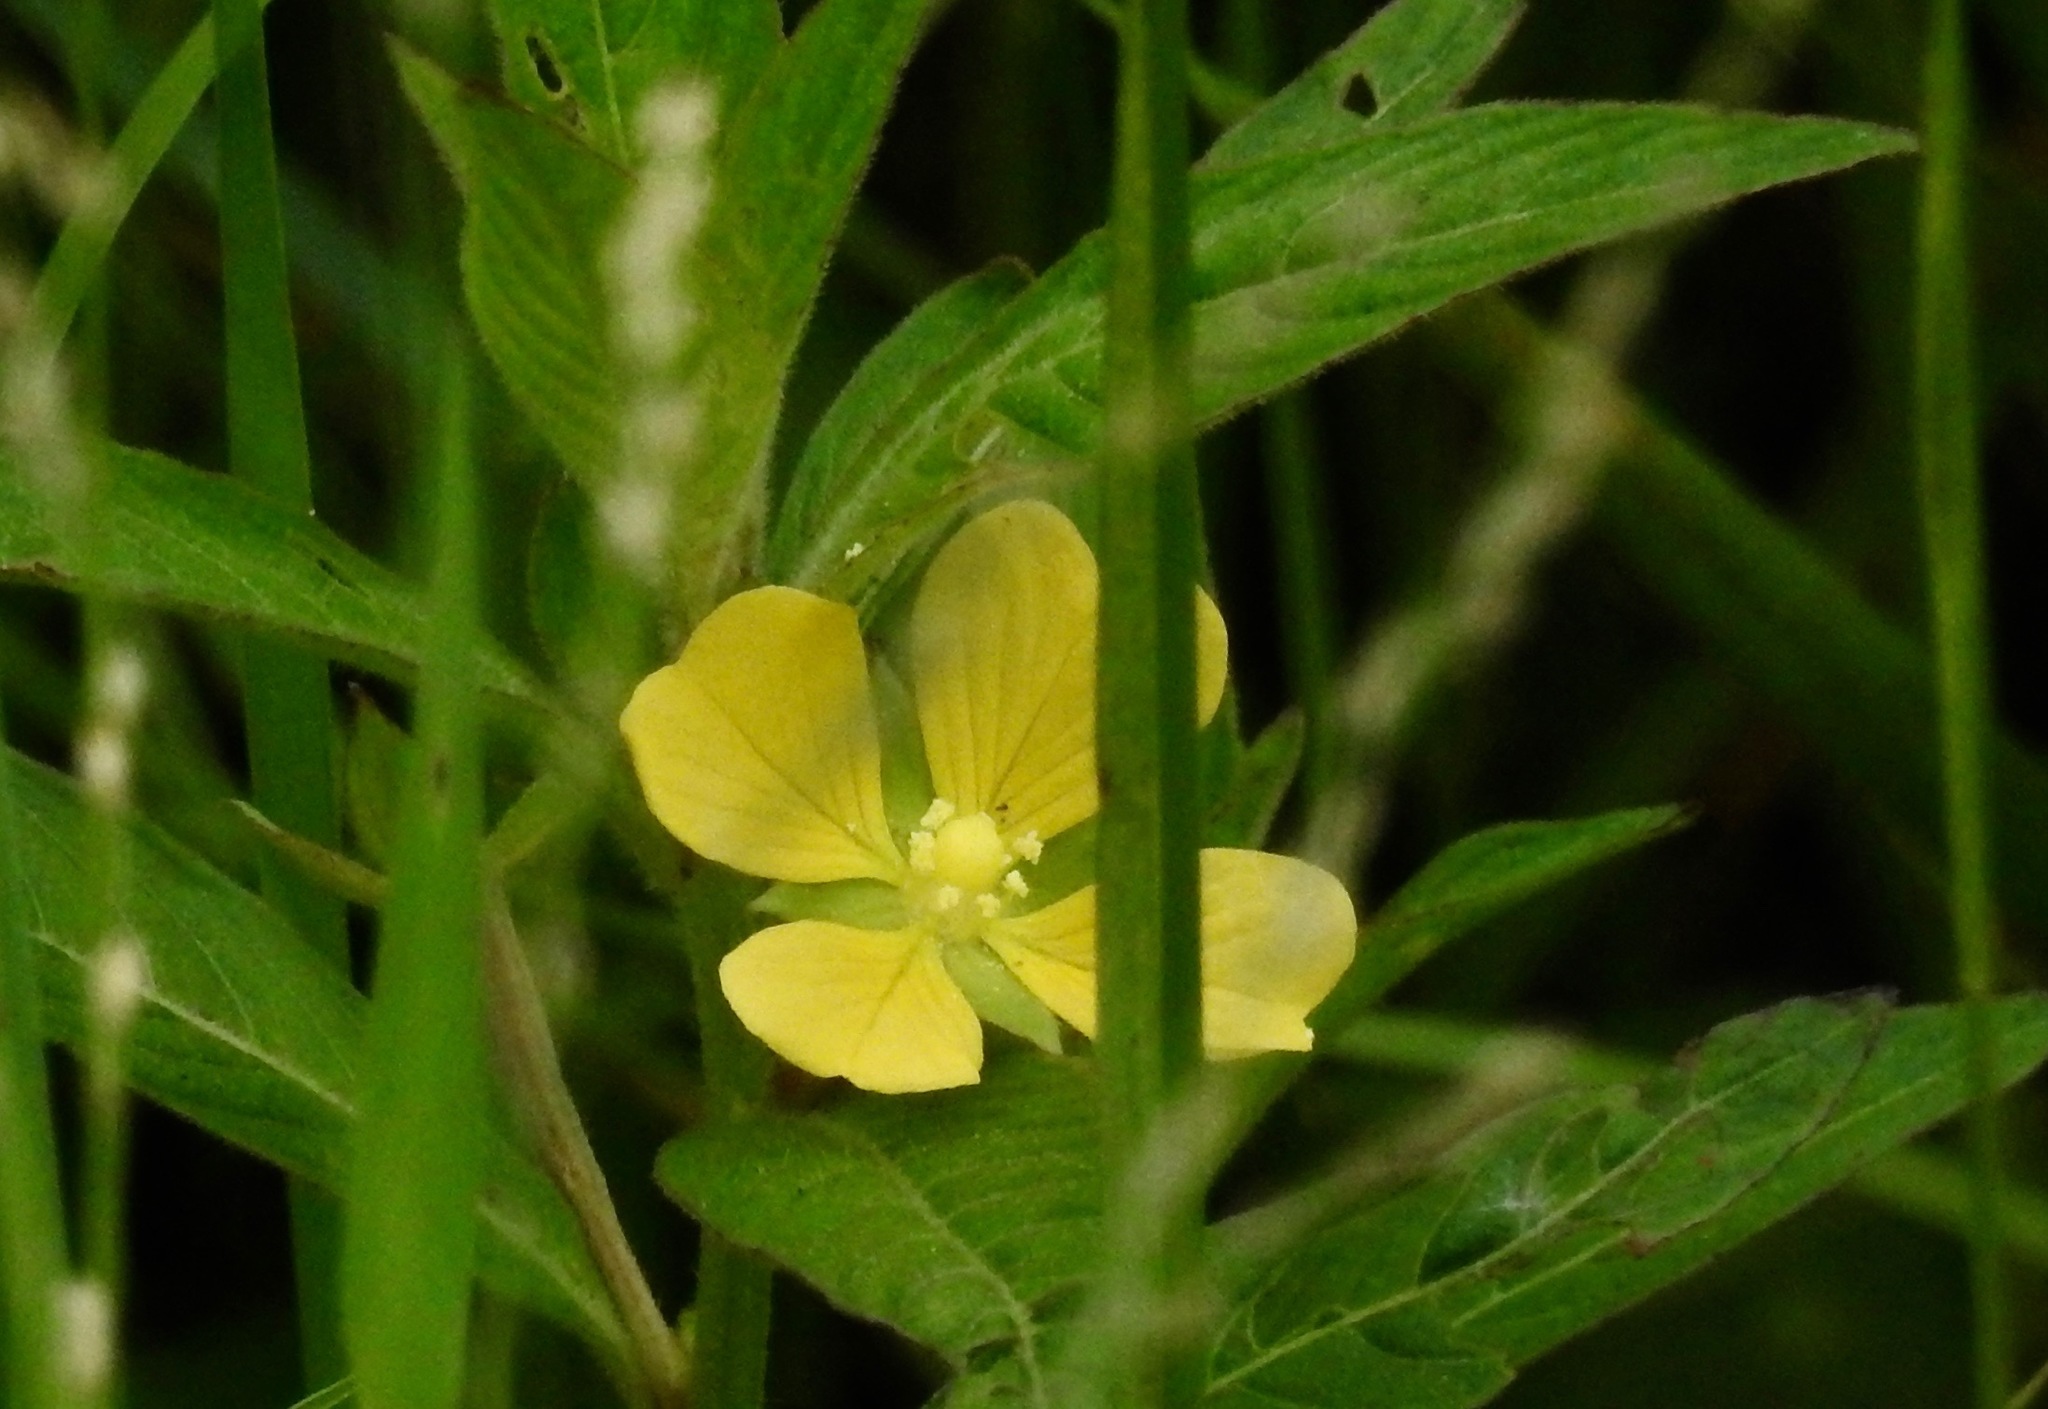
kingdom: Plantae
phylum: Tracheophyta
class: Magnoliopsida
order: Myrtales
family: Onagraceae
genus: Ludwigia
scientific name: Ludwigia octovalvis
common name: Water-primrose
